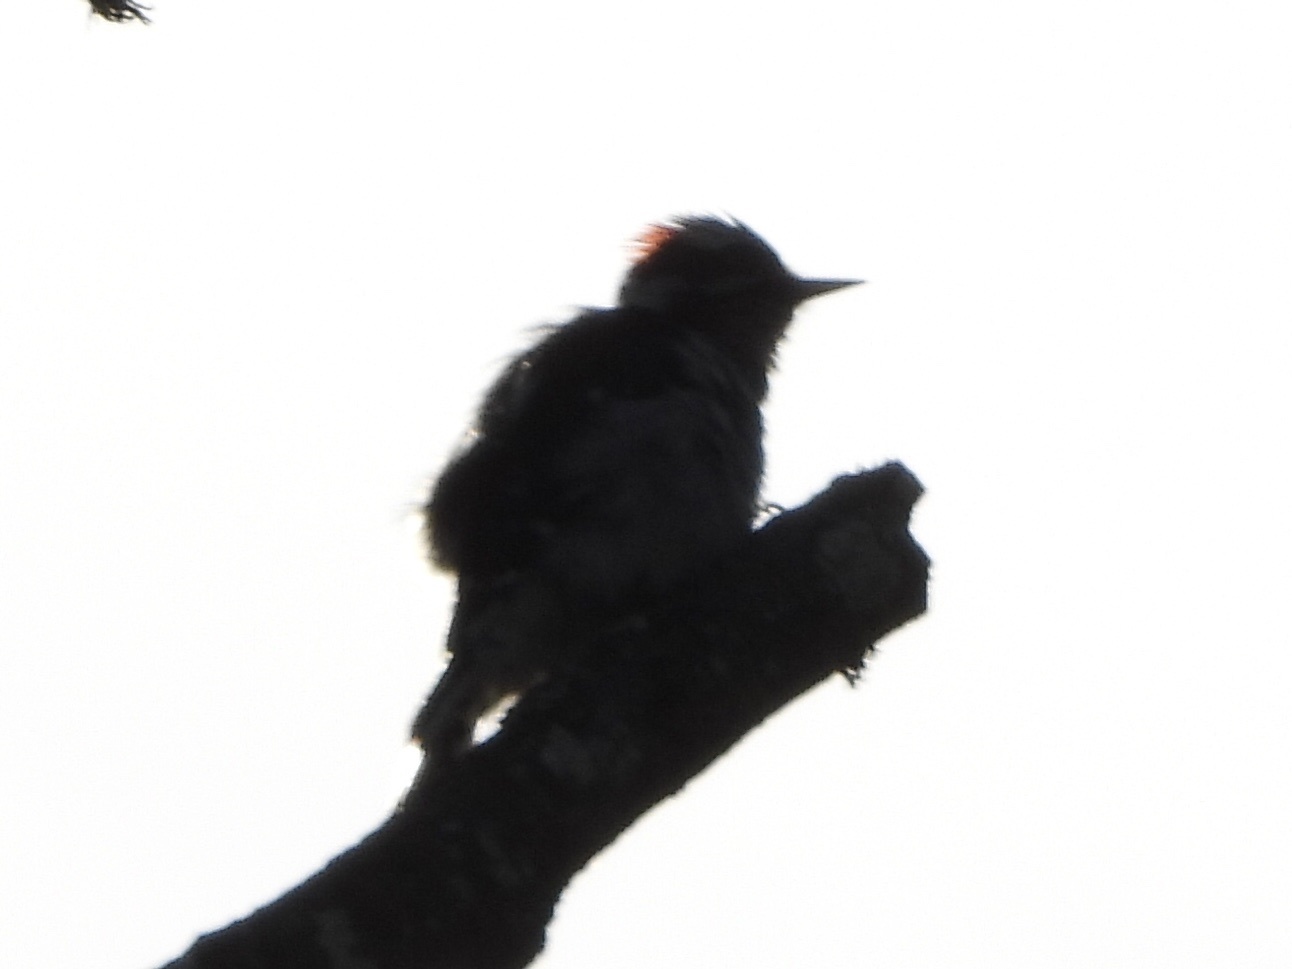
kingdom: Animalia
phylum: Chordata
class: Aves
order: Piciformes
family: Picidae
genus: Dryobates
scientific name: Dryobates pubescens
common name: Downy woodpecker
